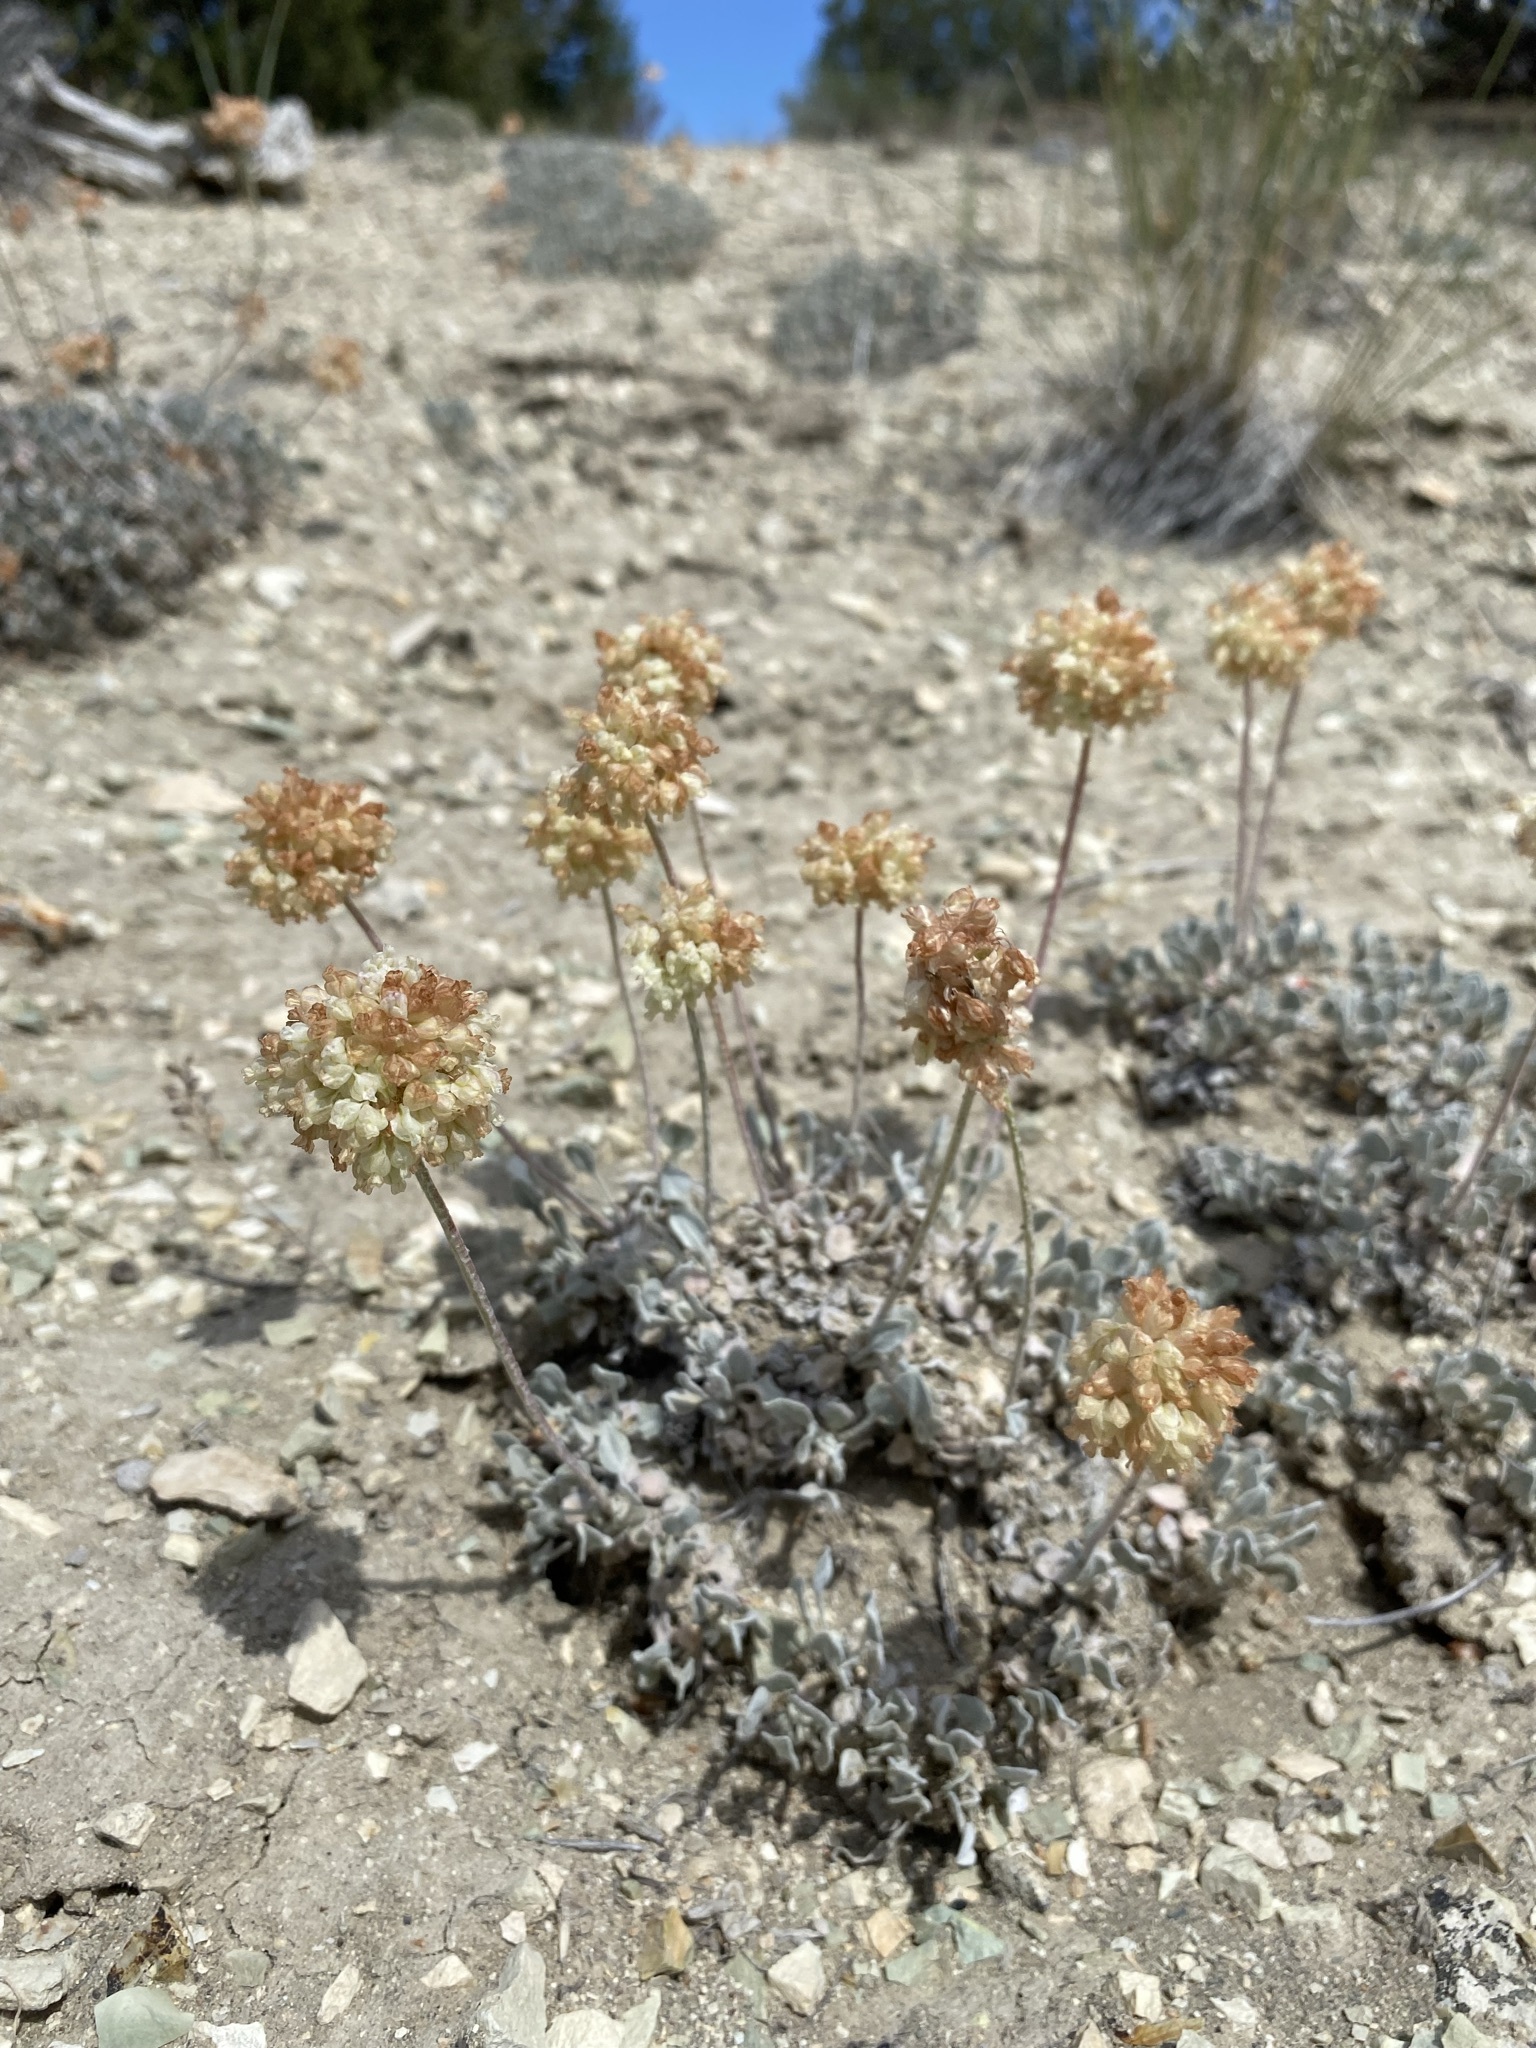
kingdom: Plantae
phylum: Tracheophyta
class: Magnoliopsida
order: Caryophyllales
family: Polygonaceae
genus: Eriogonum
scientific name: Eriogonum ovalifolium
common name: Cushion buckwheat
